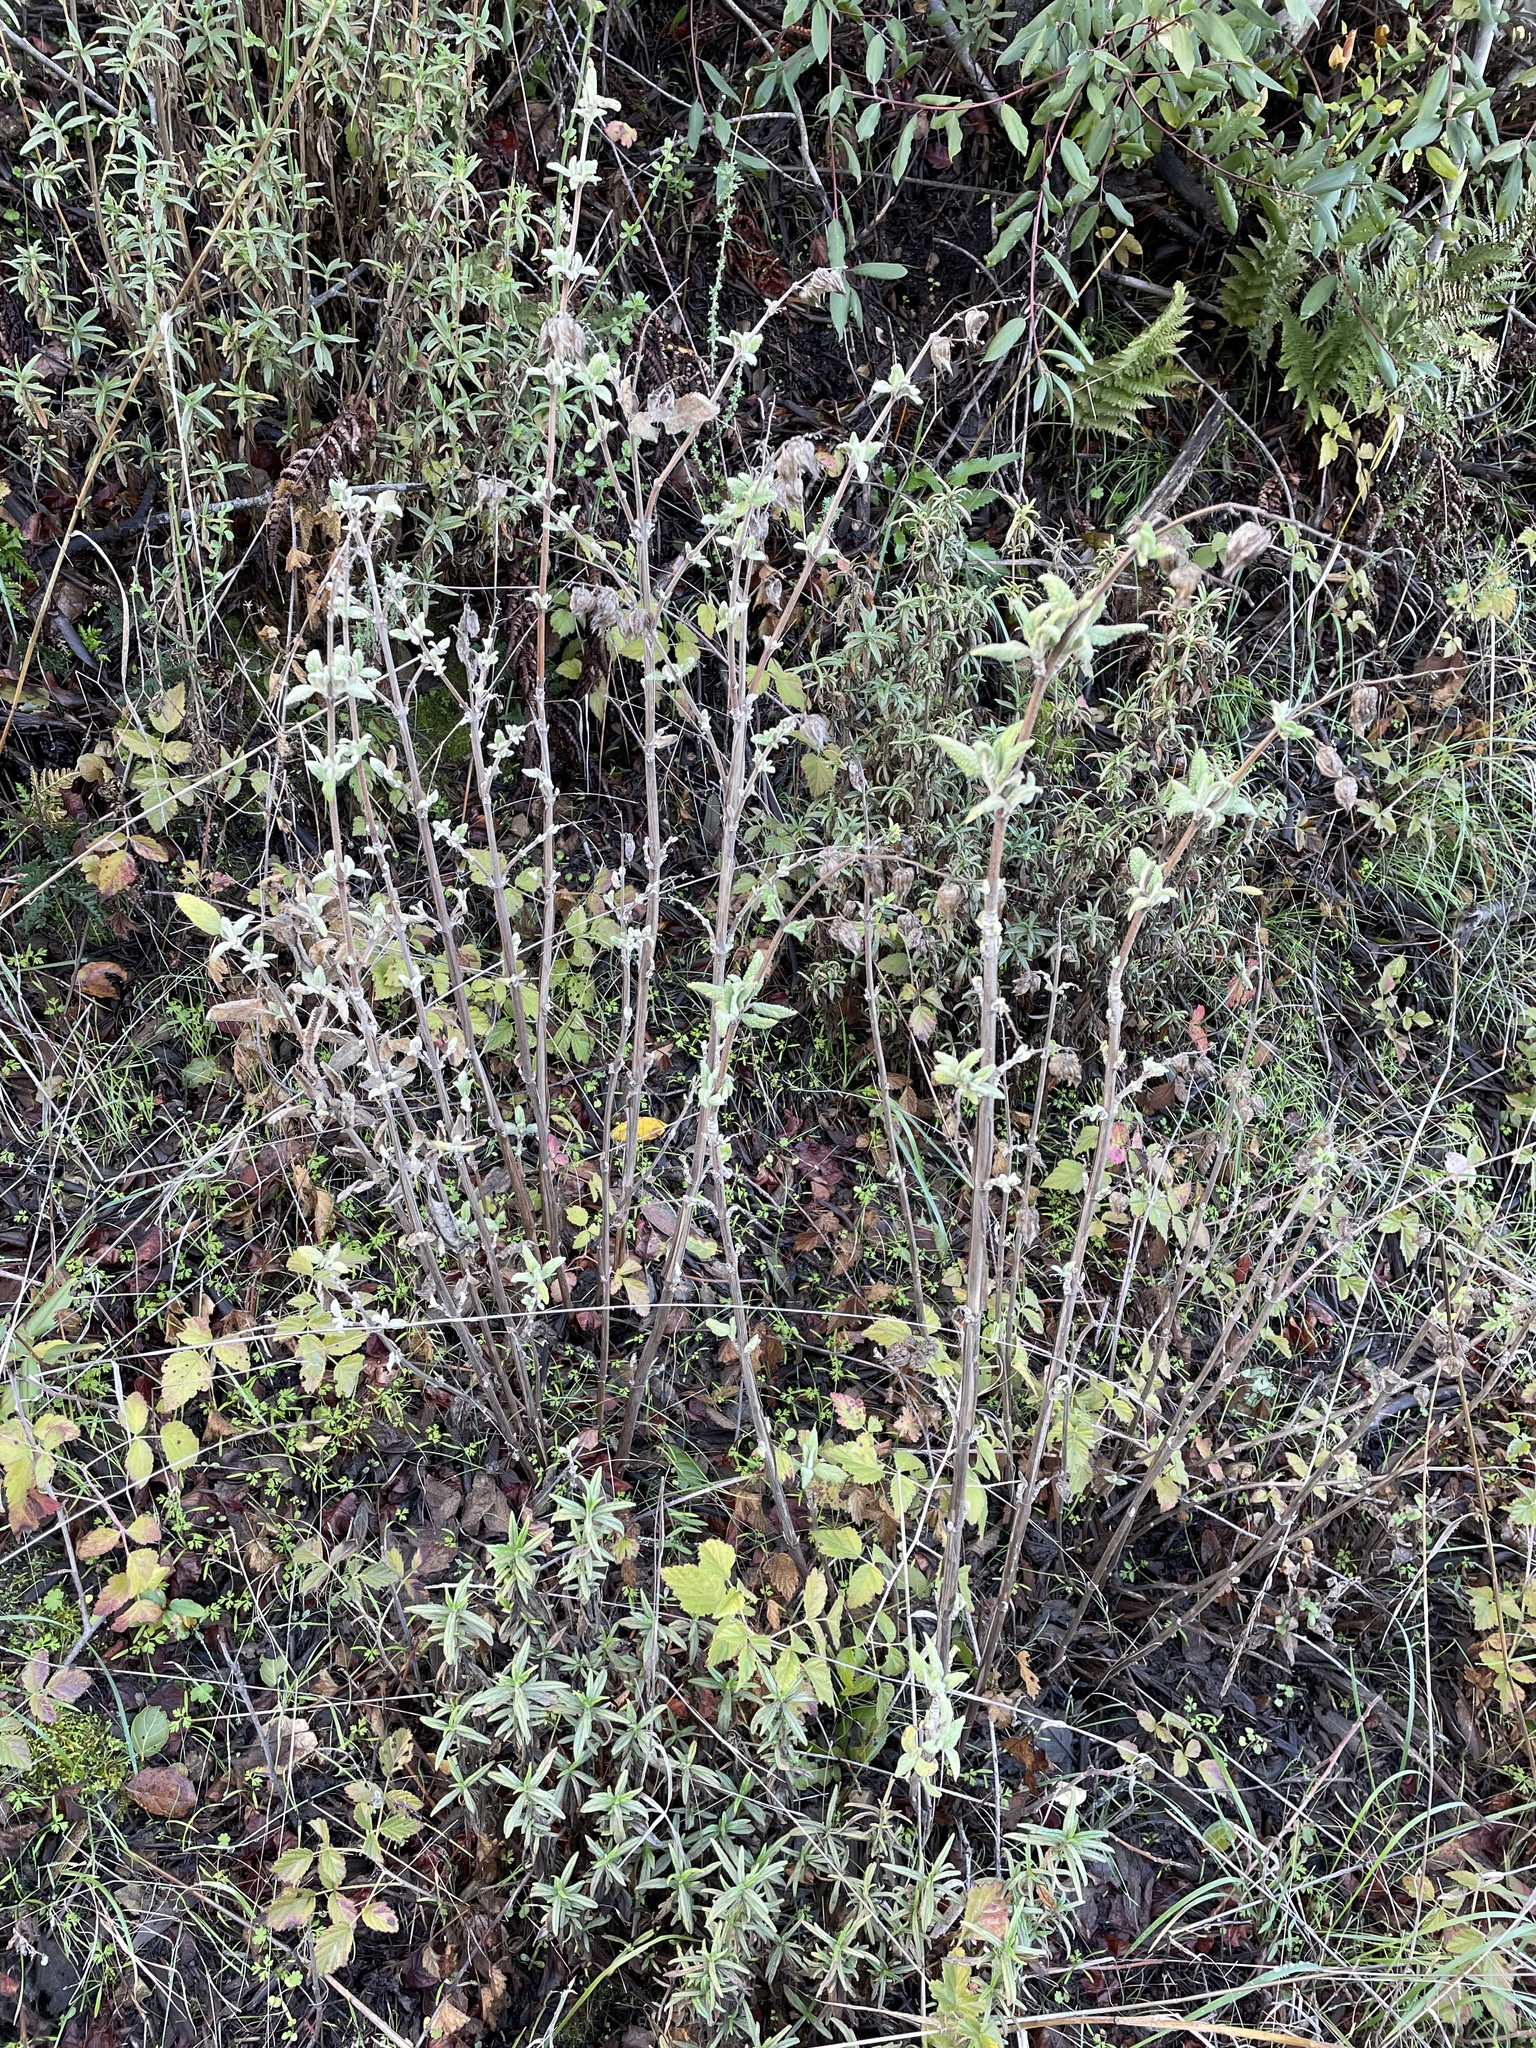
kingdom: Plantae
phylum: Tracheophyta
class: Magnoliopsida
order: Lamiales
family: Lamiaceae
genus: Lepechinia
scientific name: Lepechinia calycina
